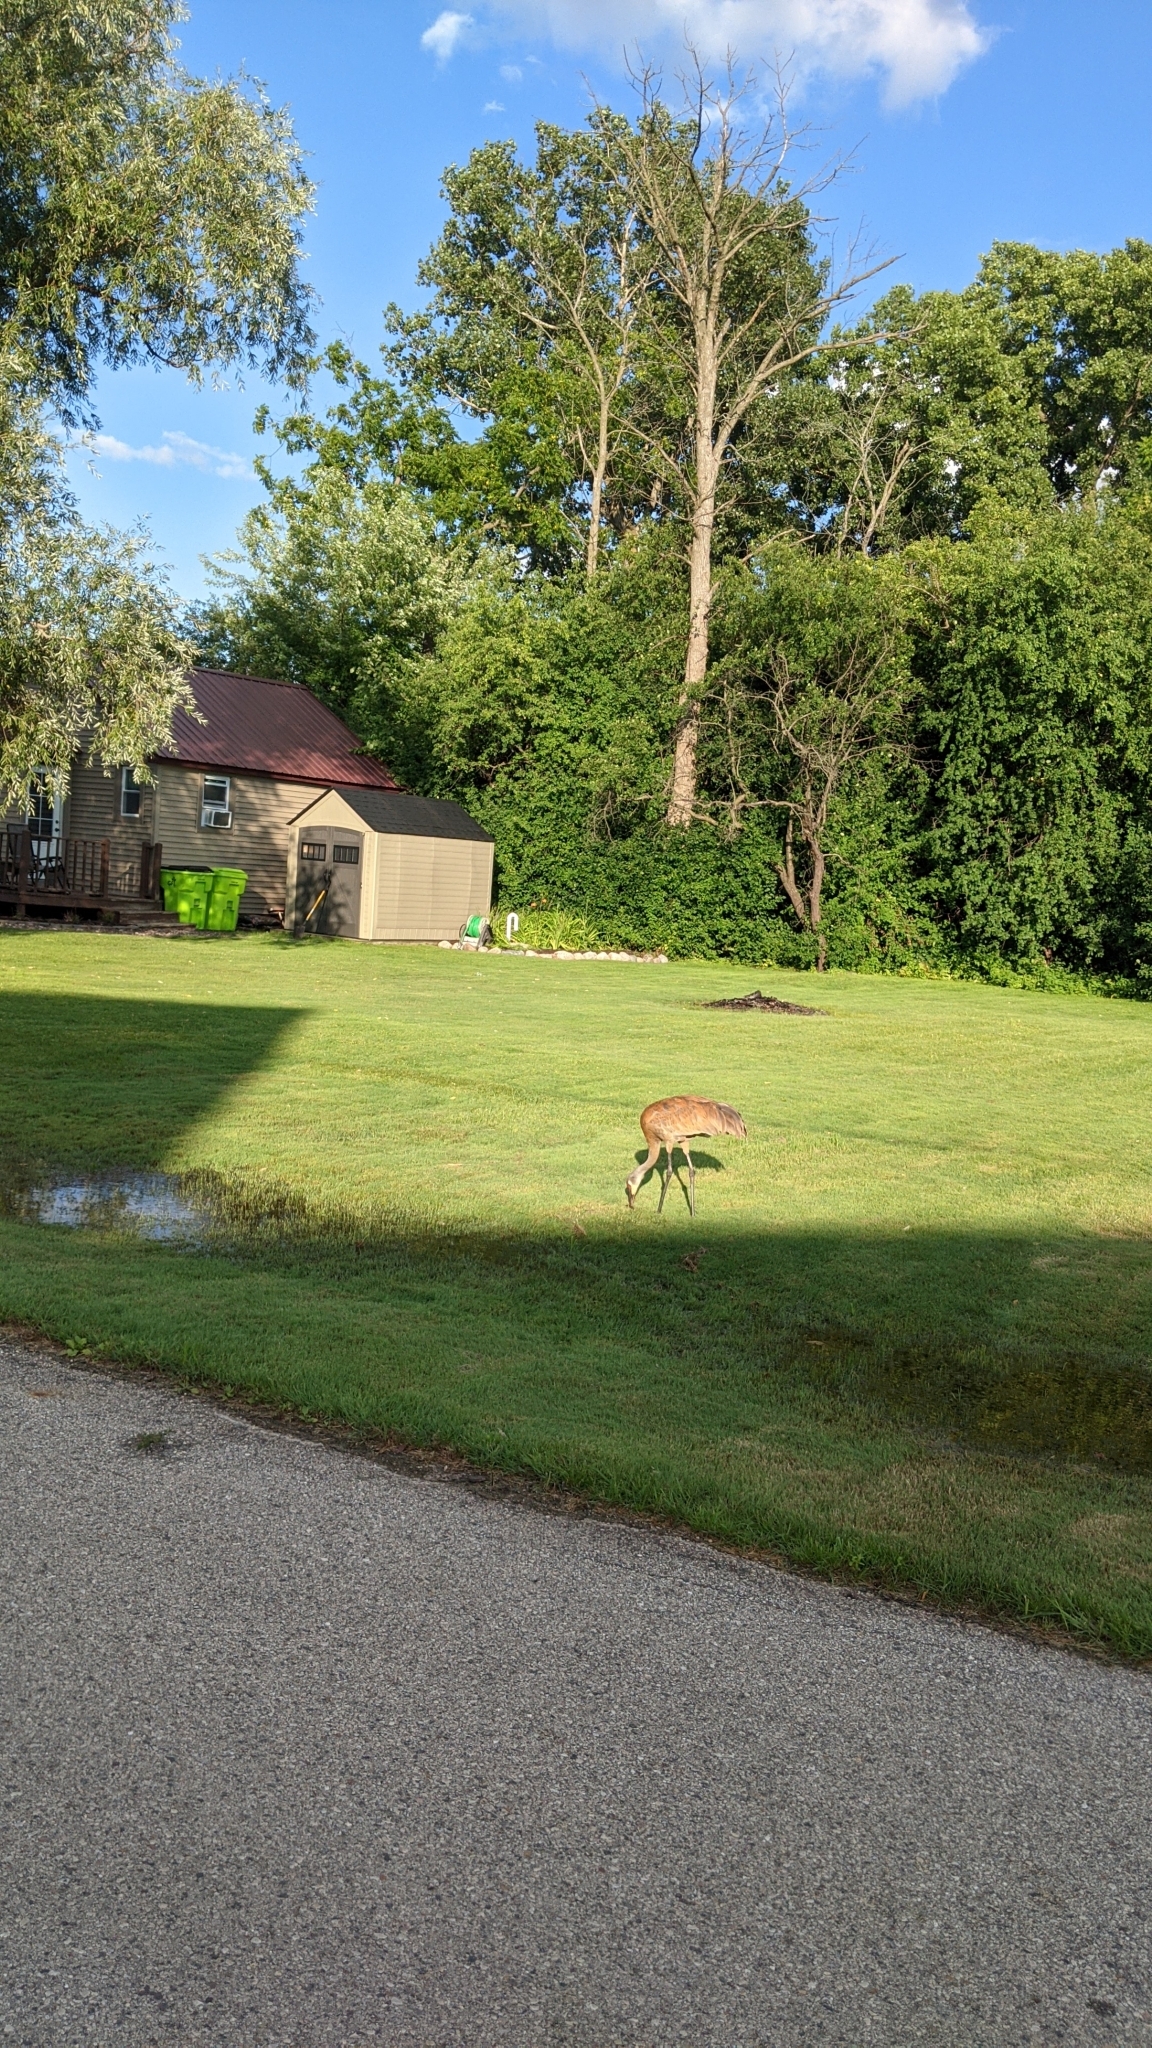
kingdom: Animalia
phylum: Chordata
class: Aves
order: Gruiformes
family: Gruidae
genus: Grus
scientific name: Grus canadensis
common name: Sandhill crane
